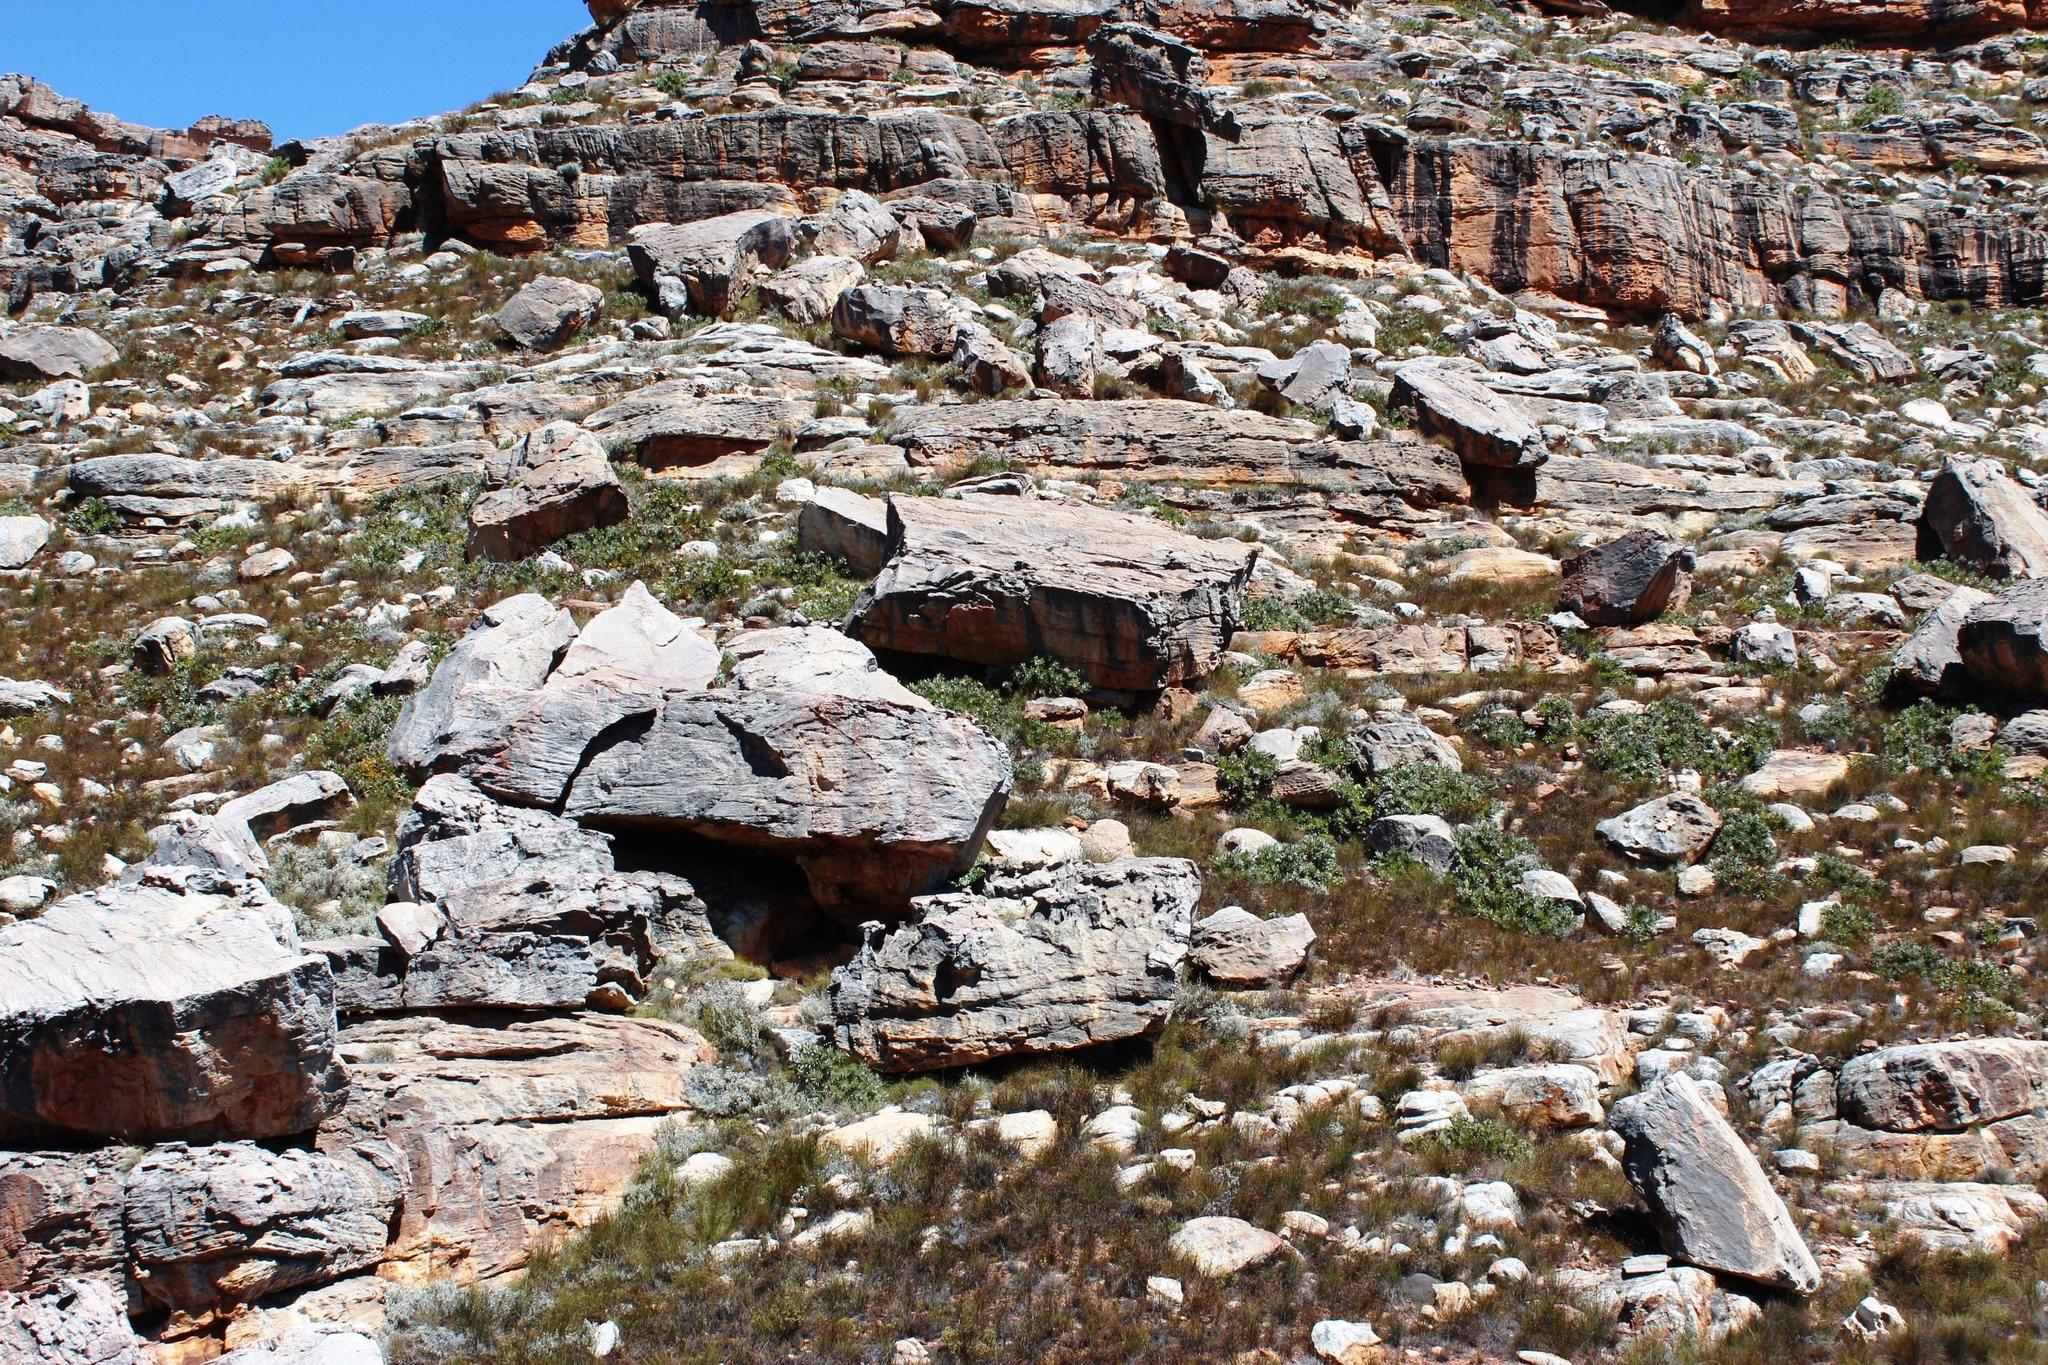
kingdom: Plantae
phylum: Tracheophyta
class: Magnoliopsida
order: Proteales
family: Proteaceae
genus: Protea
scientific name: Protea magnifica
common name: Bearded sugarbush
